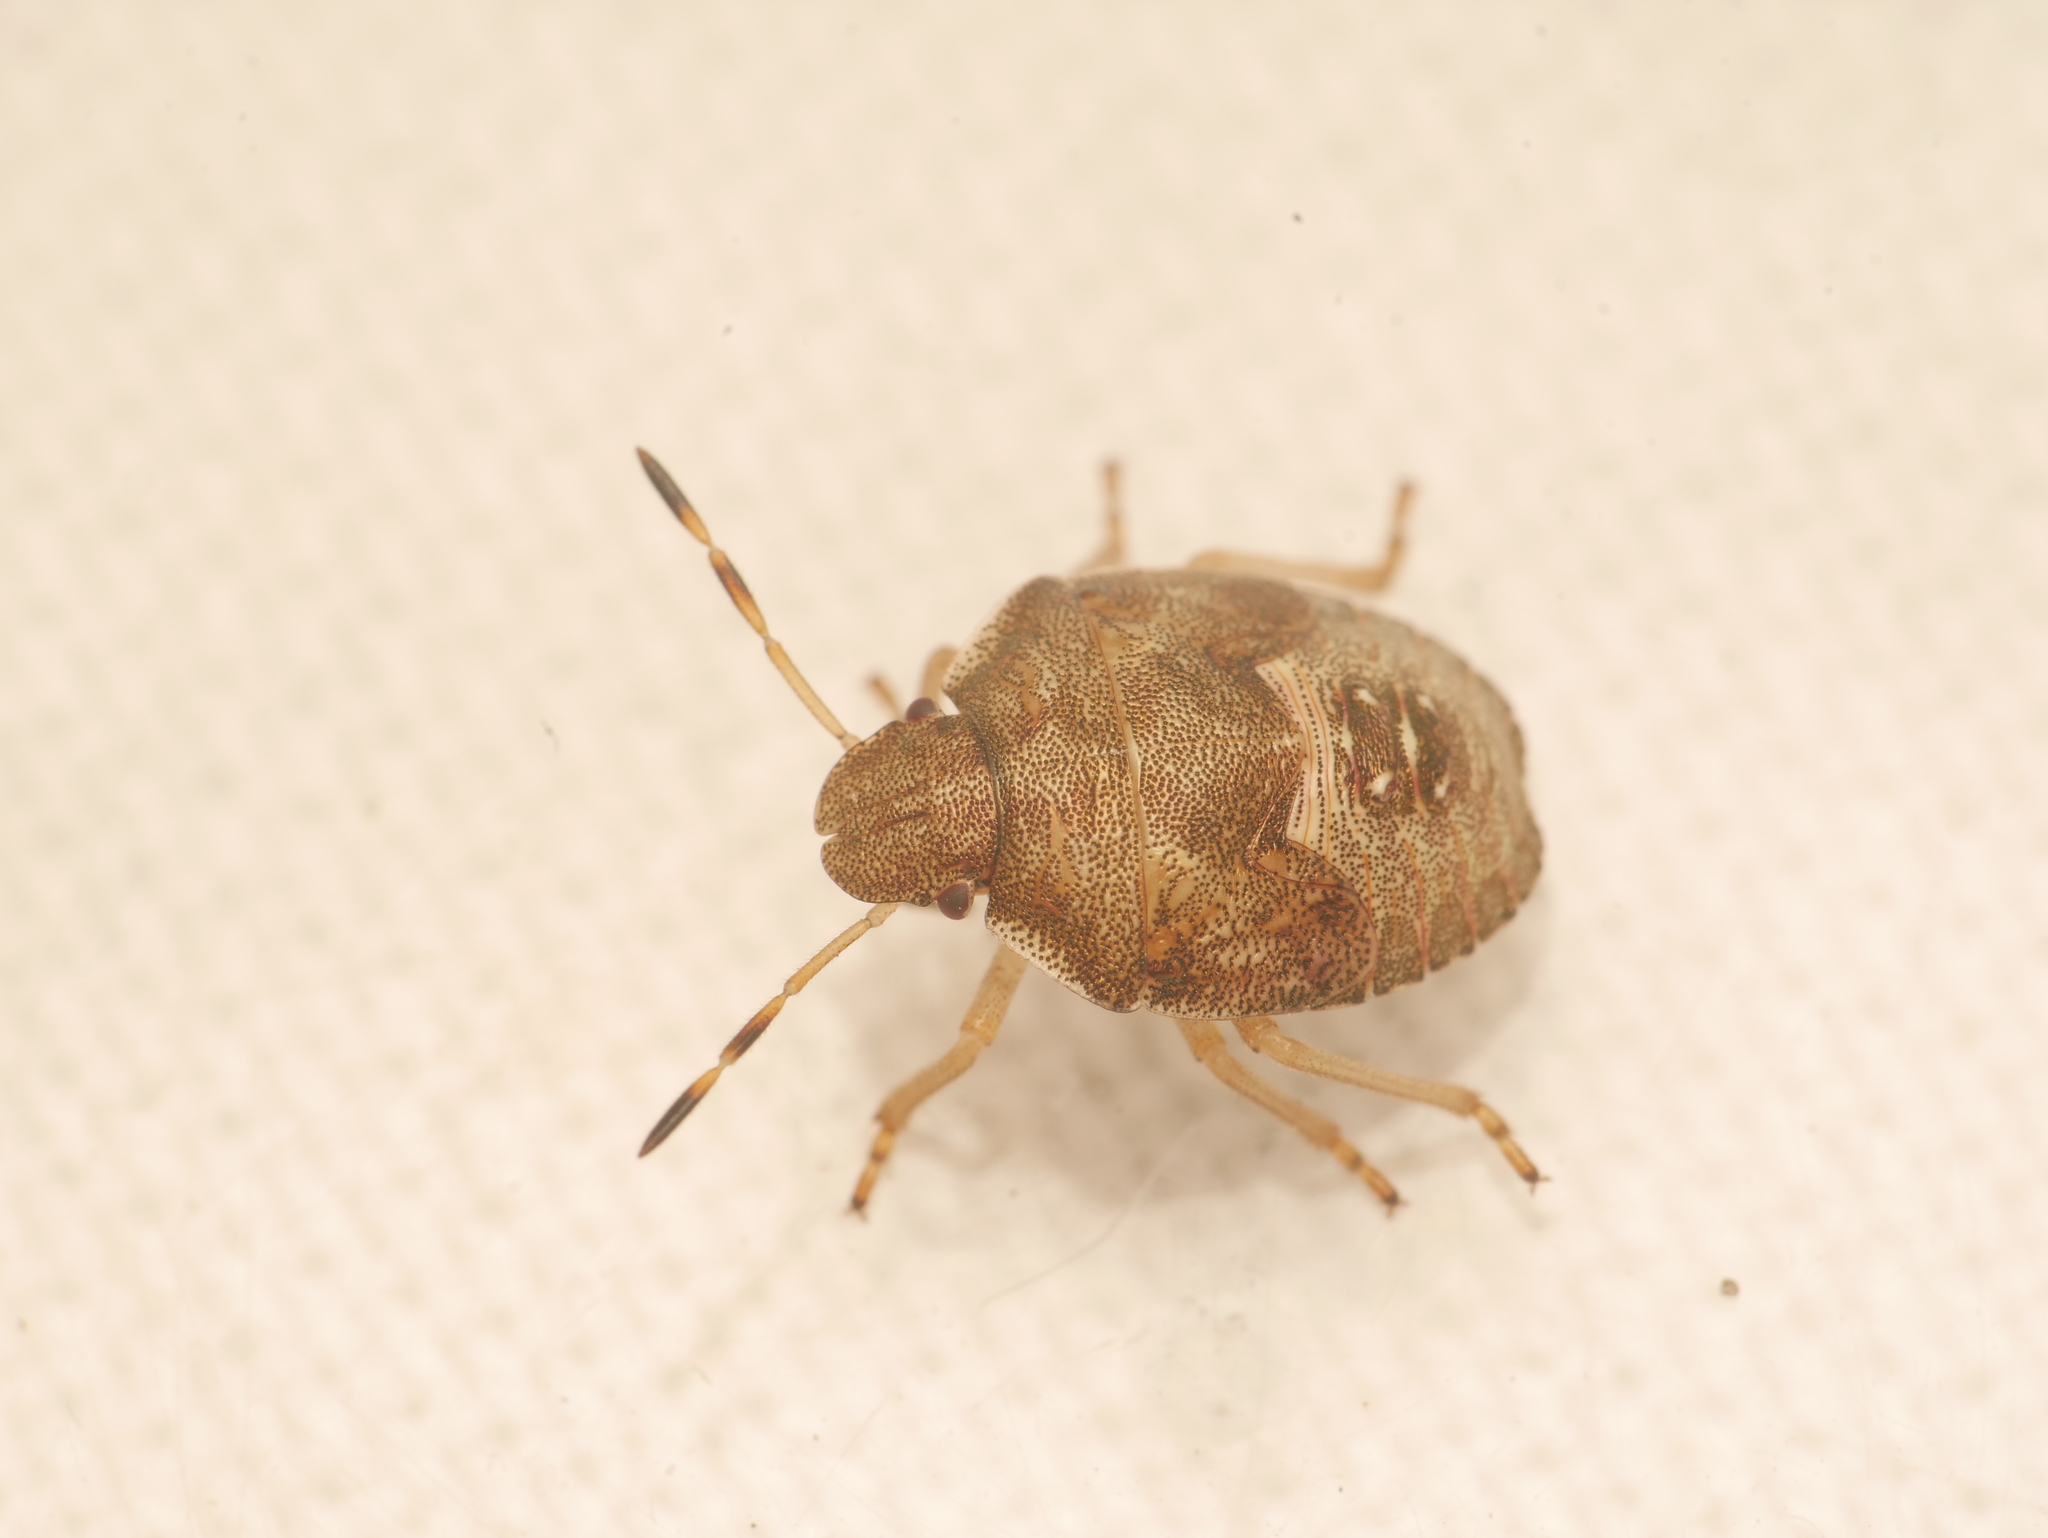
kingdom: Animalia
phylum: Arthropoda
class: Insecta
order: Hemiptera
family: Pentatomidae
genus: Holcostethus
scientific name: Holcostethus strictus
